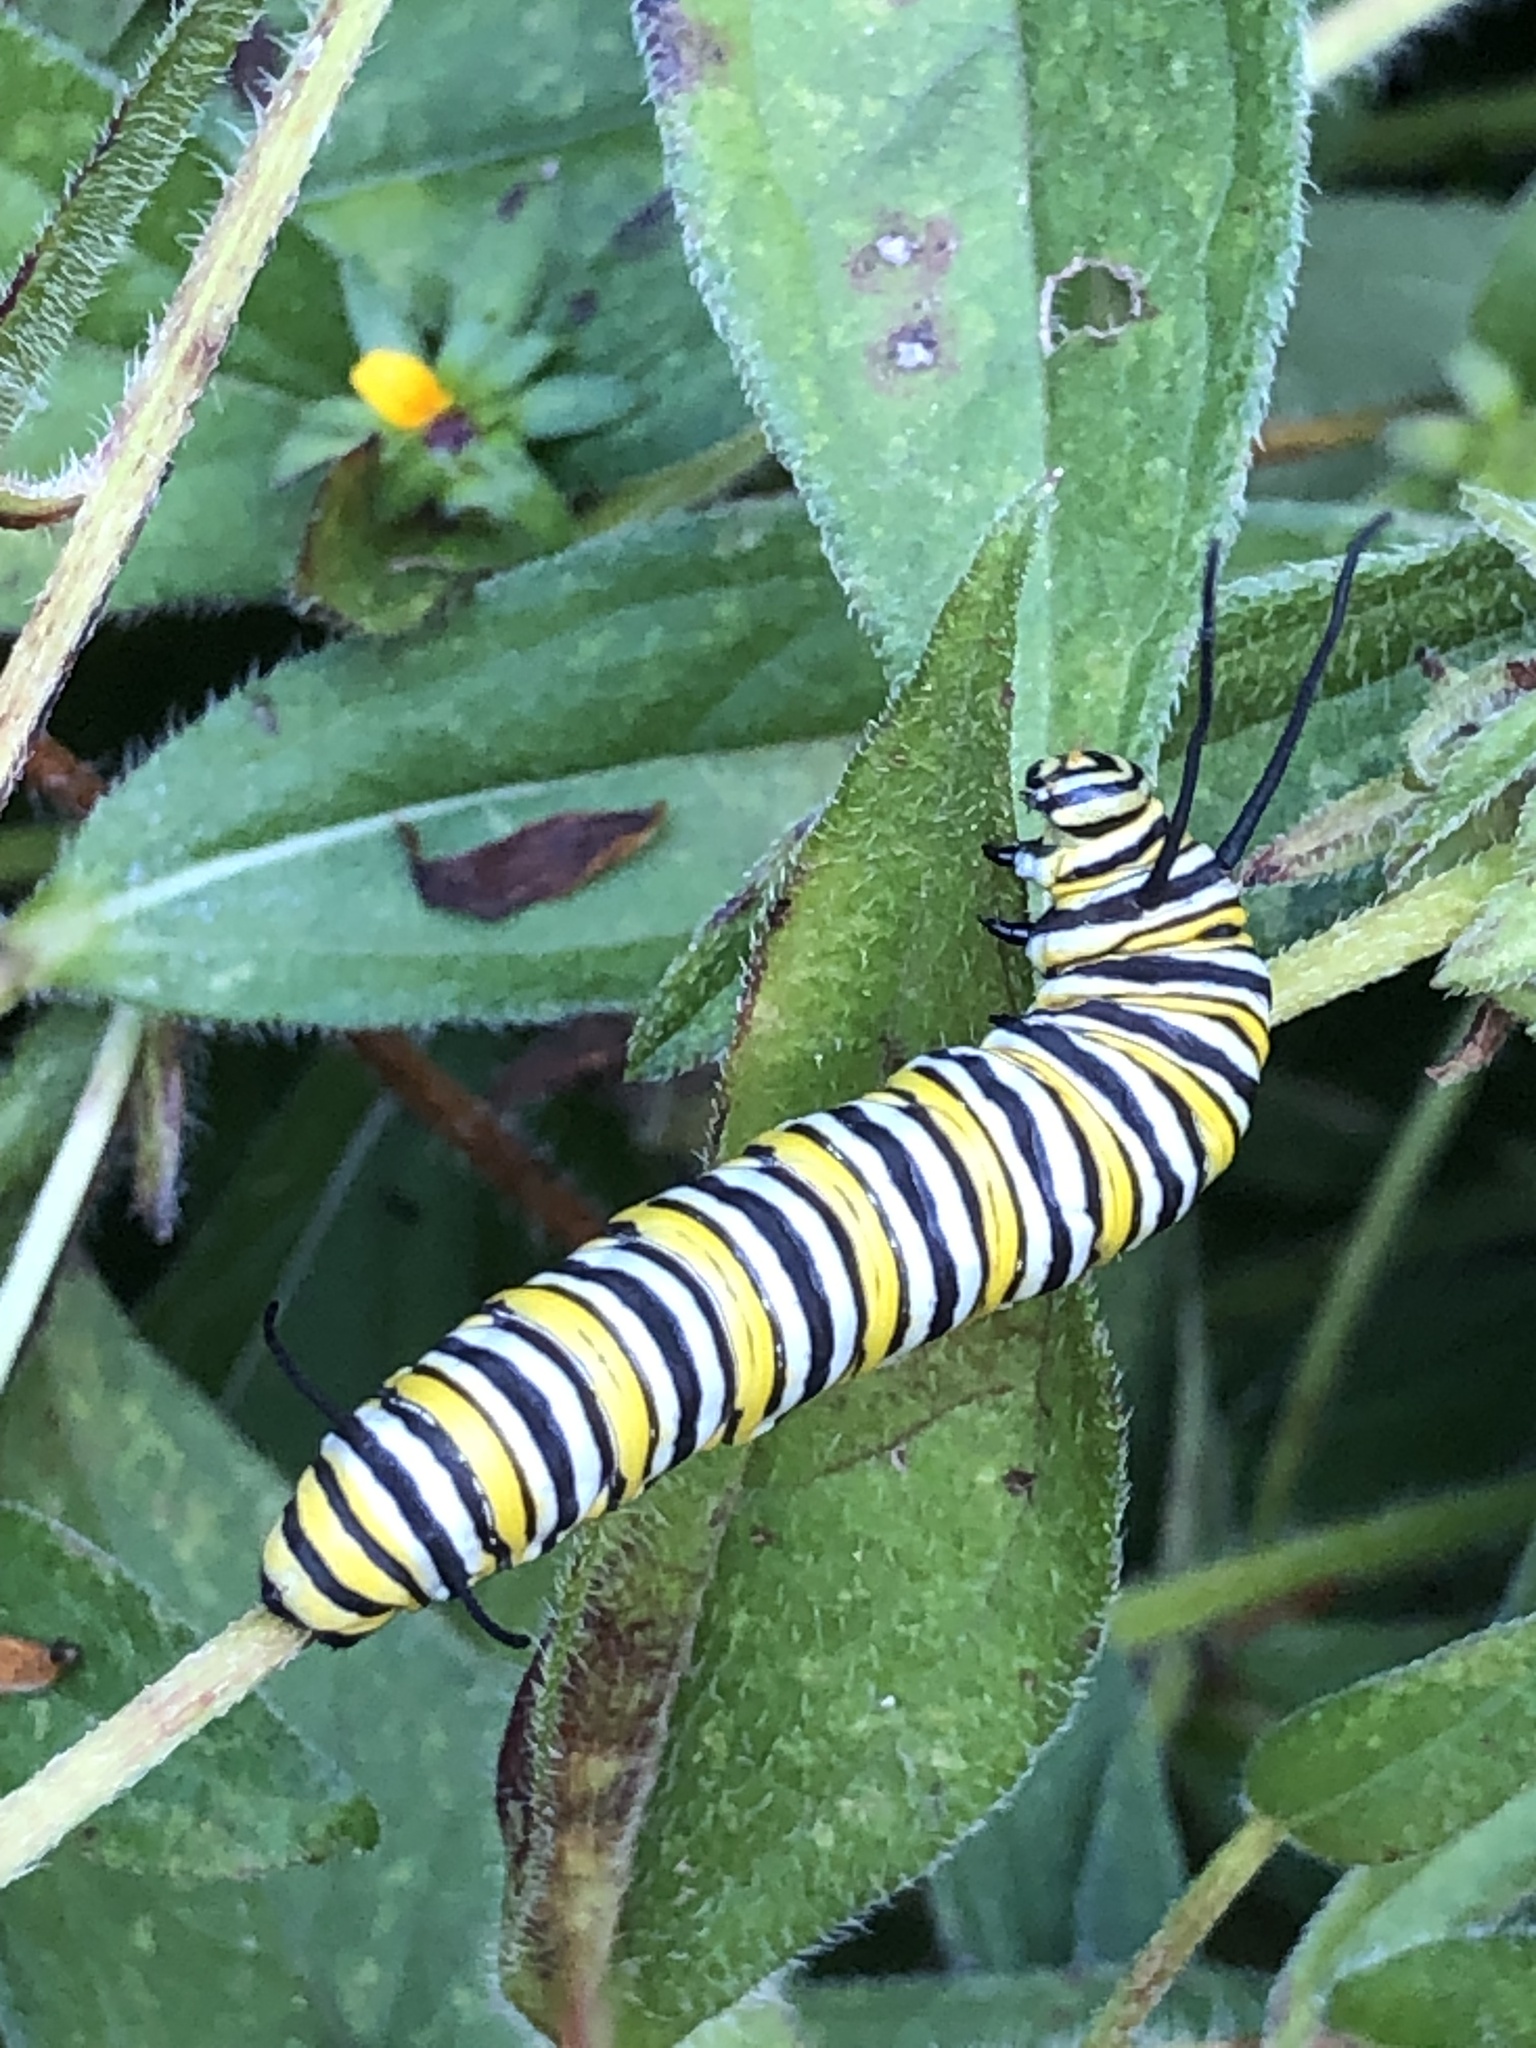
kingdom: Animalia
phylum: Arthropoda
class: Insecta
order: Lepidoptera
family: Nymphalidae
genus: Danaus
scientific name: Danaus plexippus
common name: Monarch
